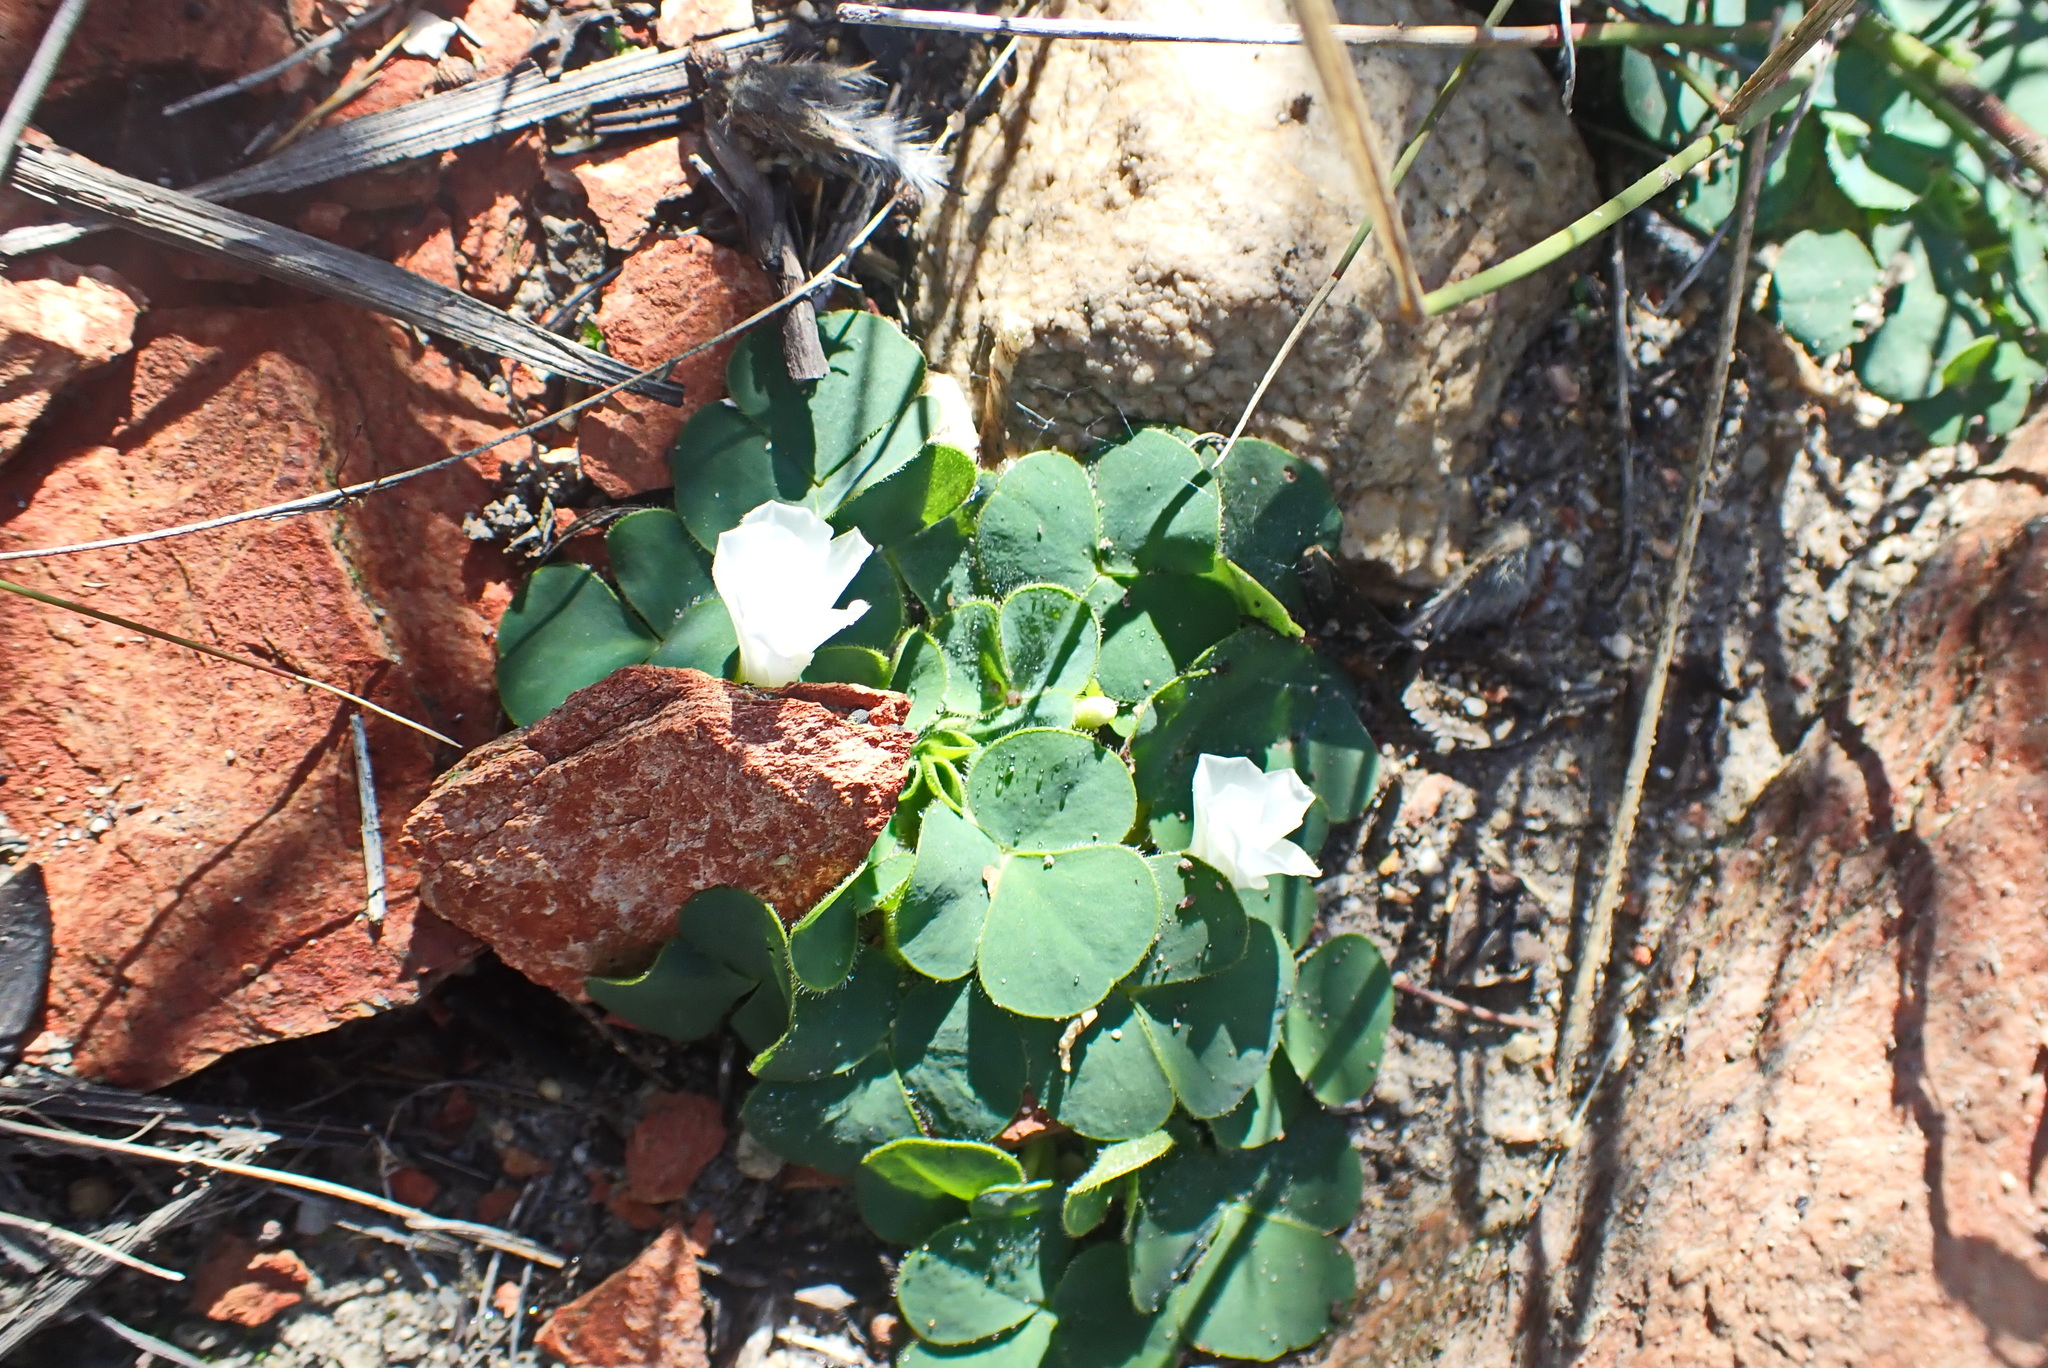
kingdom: Plantae
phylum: Tracheophyta
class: Magnoliopsida
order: Oxalidales
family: Oxalidaceae
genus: Oxalis
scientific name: Oxalis purpurea
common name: Purple woodsorrel
